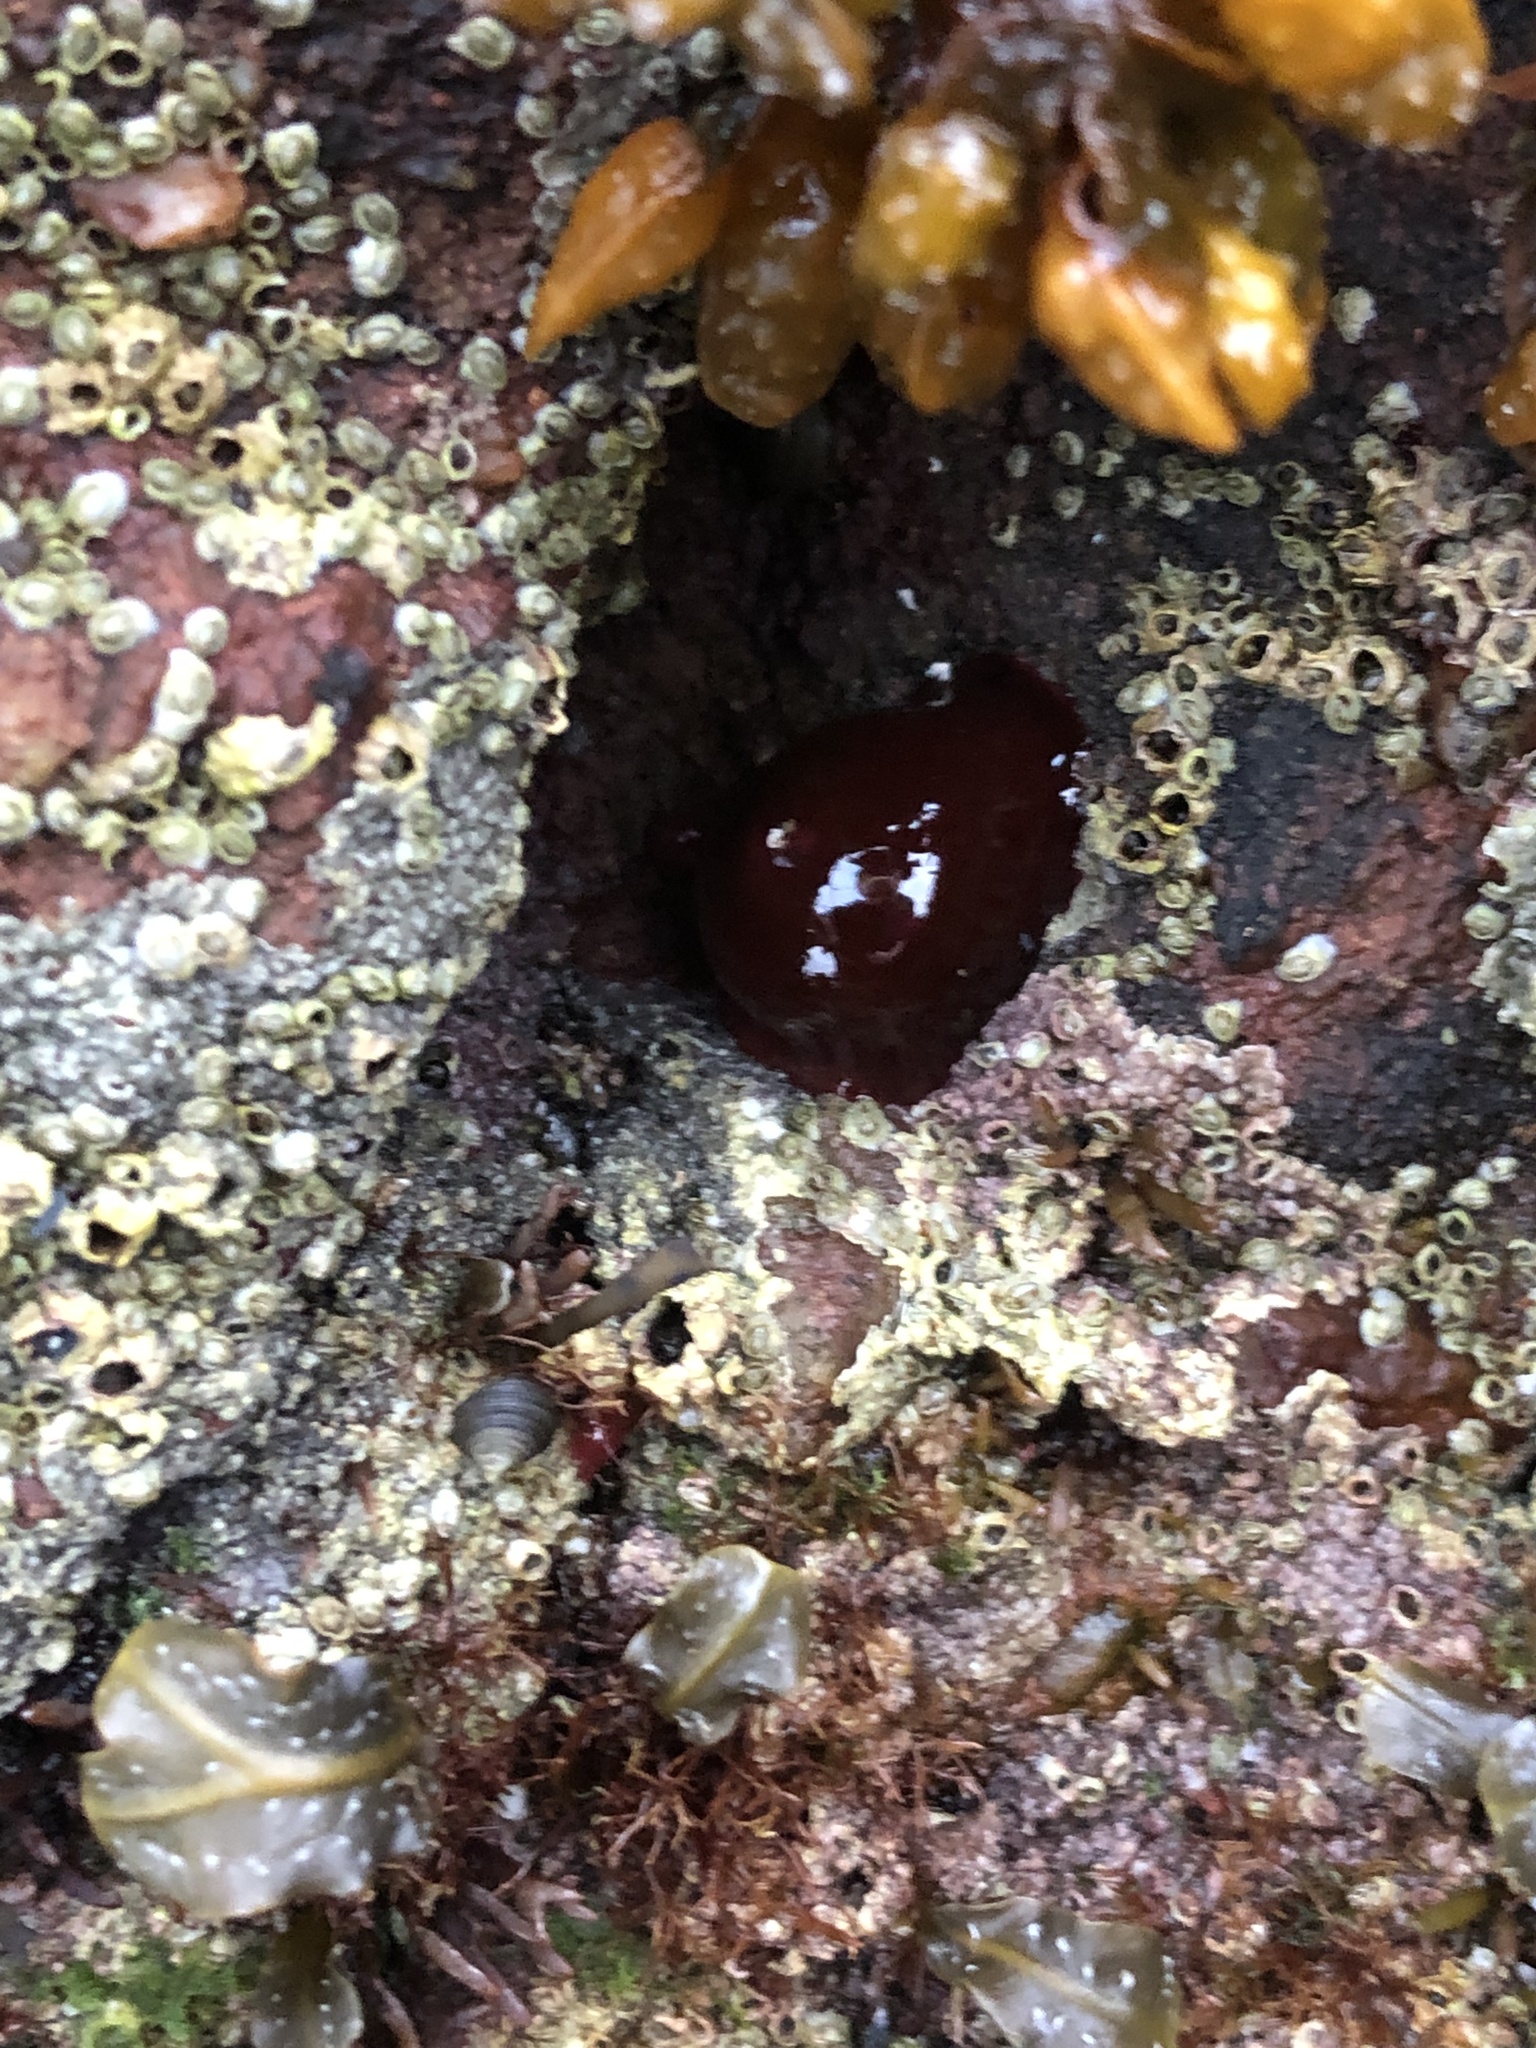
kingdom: Animalia
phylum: Cnidaria
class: Anthozoa
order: Actiniaria
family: Actiniidae
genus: Actinia
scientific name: Actinia equina
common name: Beadlet anemone
